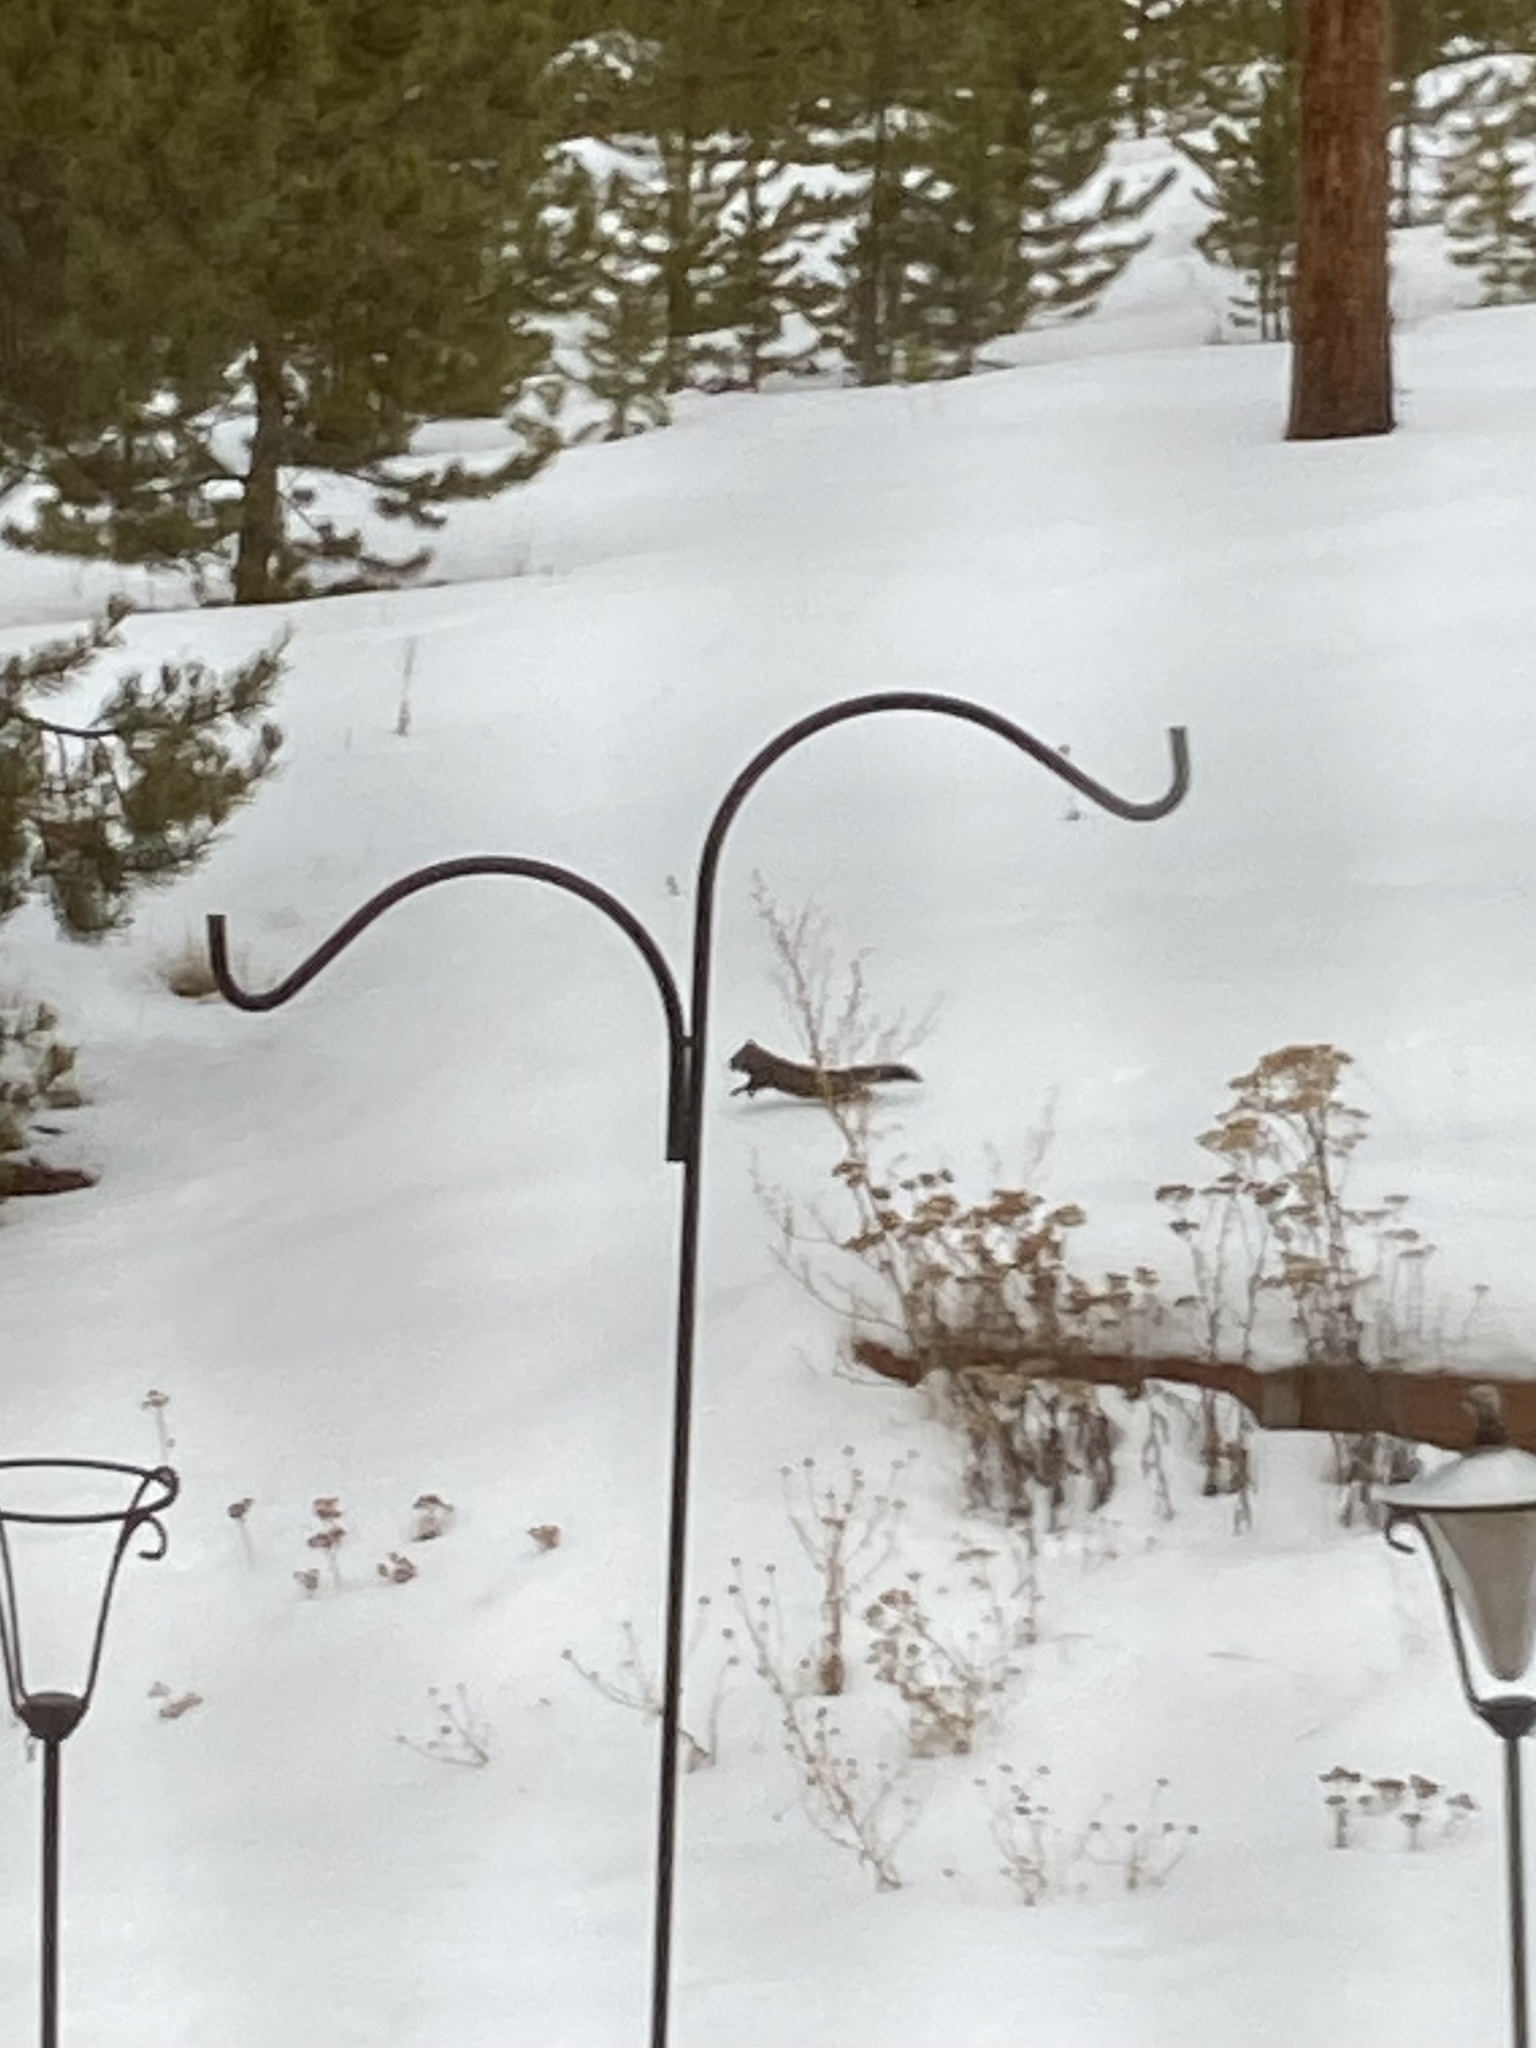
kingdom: Animalia
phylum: Chordata
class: Mammalia
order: Rodentia
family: Sciuridae
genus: Tamiasciurus
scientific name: Tamiasciurus hudsonicus
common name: Red squirrel
